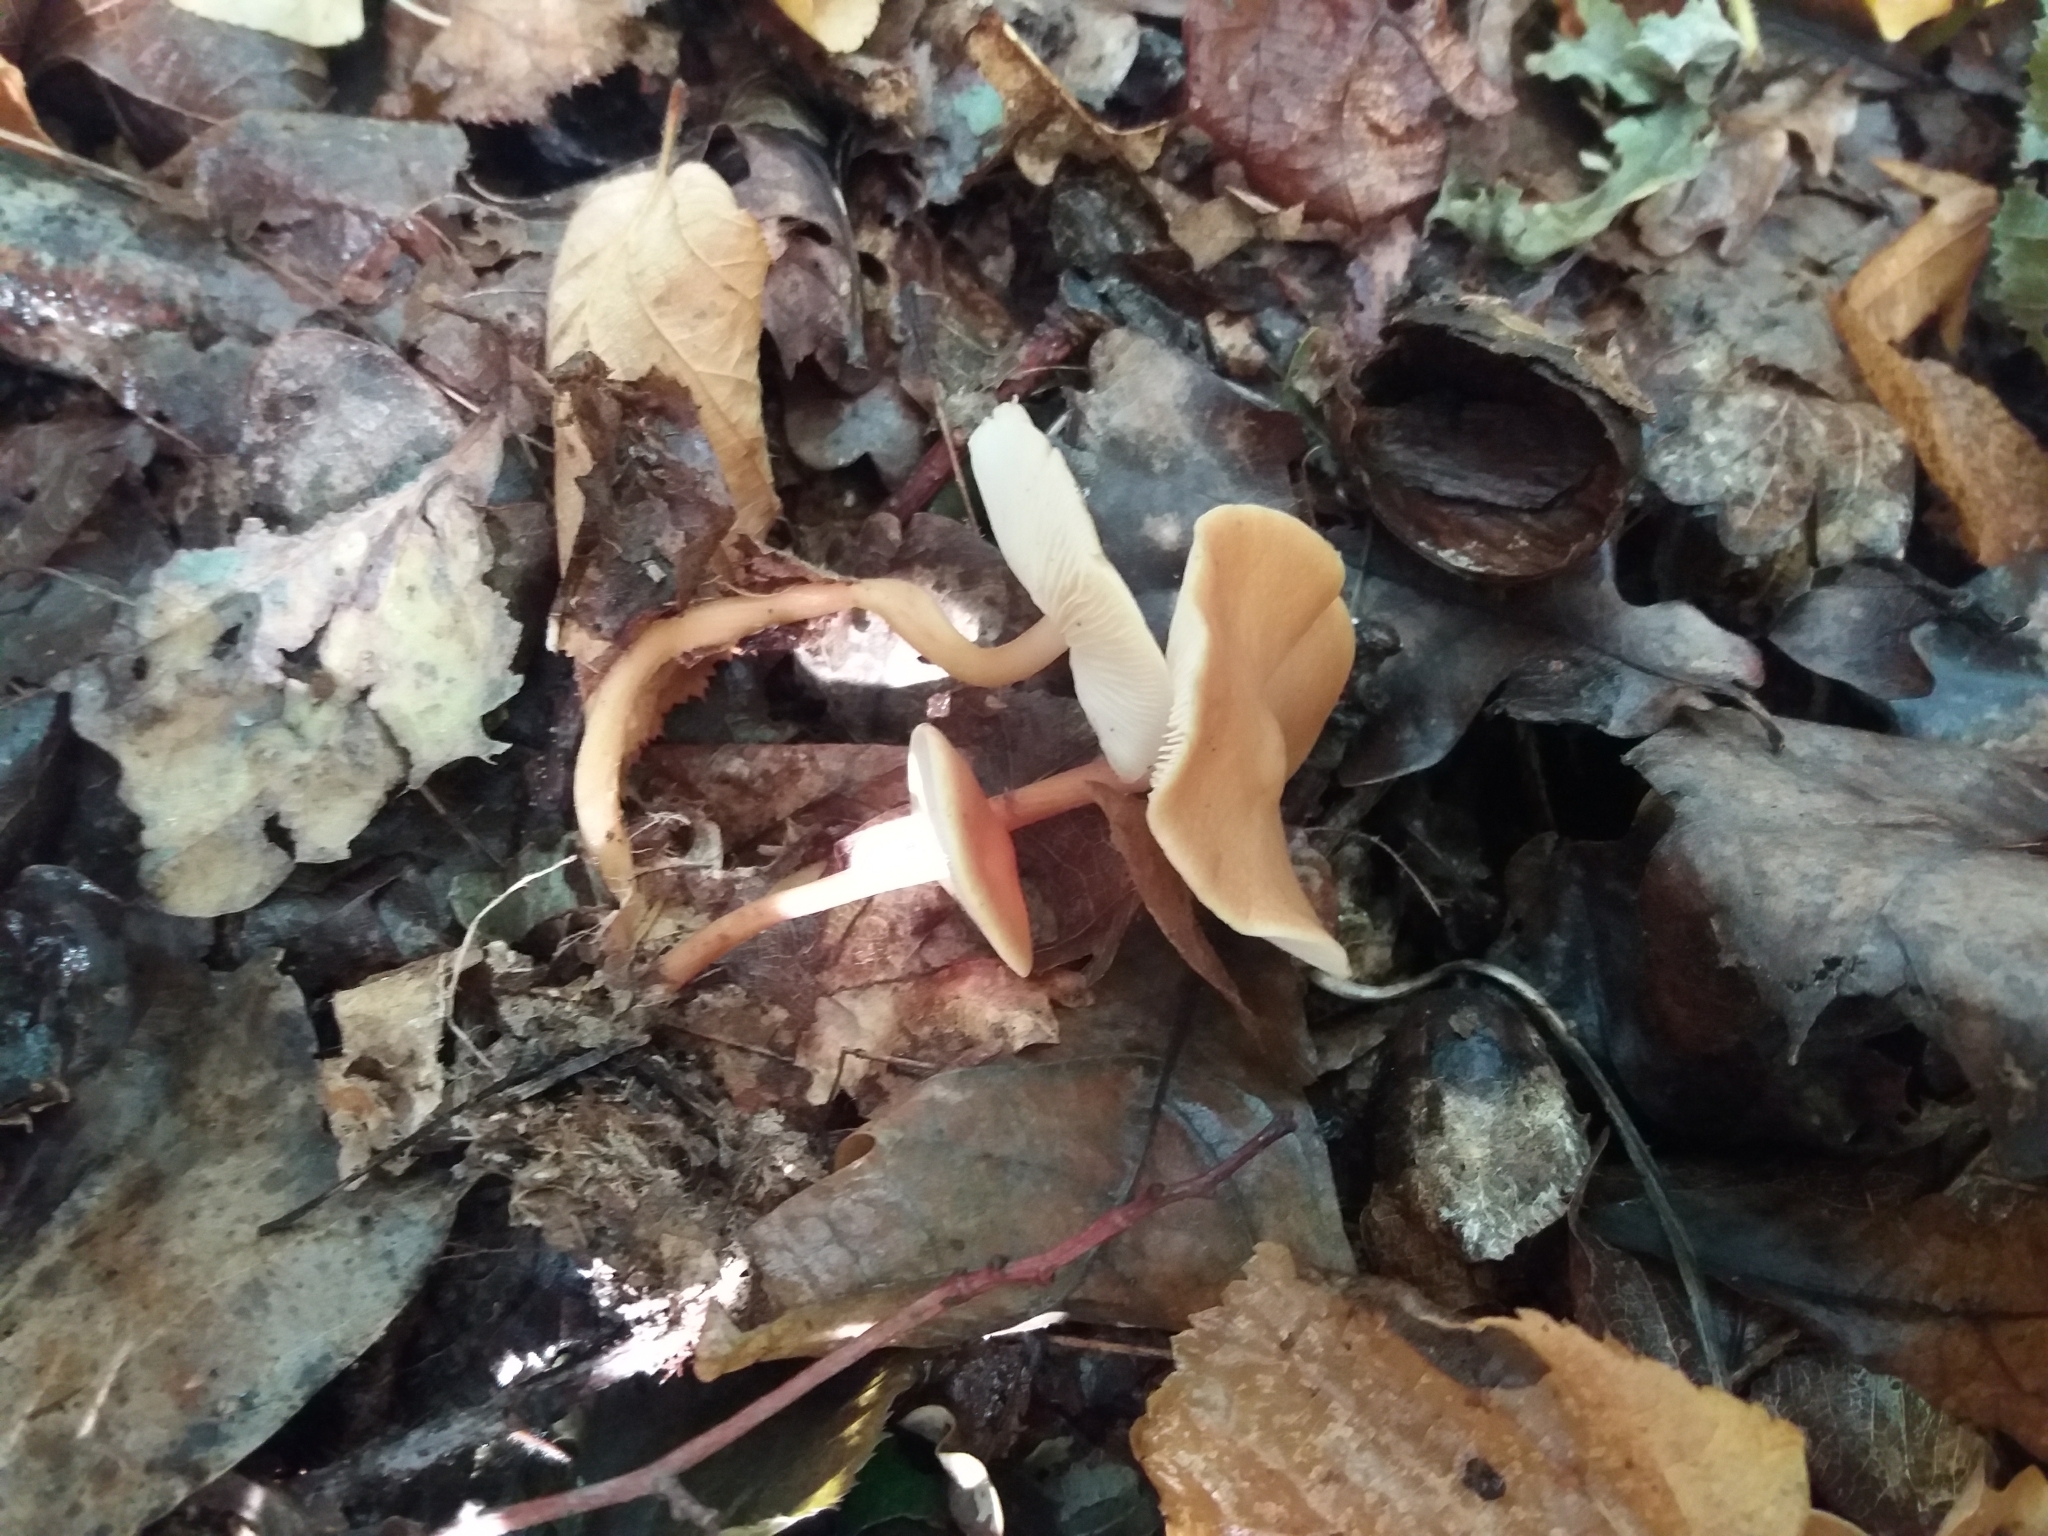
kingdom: Fungi
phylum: Basidiomycota
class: Agaricomycetes
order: Agaricales
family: Omphalotaceae
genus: Gymnopus
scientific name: Gymnopus dryophilus
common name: Penny top
